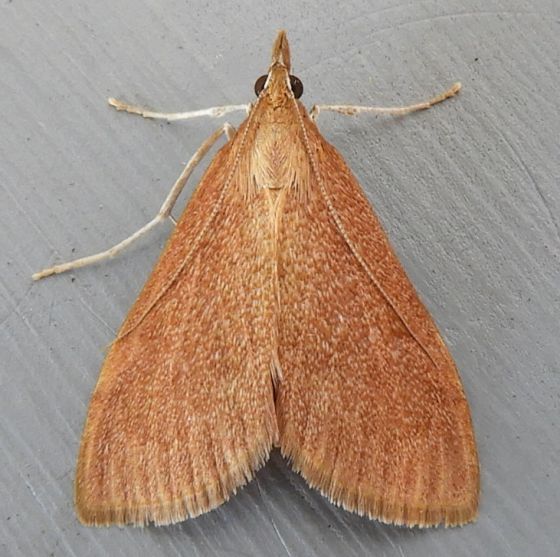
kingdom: Animalia
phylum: Arthropoda
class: Insecta
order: Lepidoptera
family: Crambidae
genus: Saucrobotys
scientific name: Saucrobotys futilalis
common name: Dogbane saucrobotys moth
